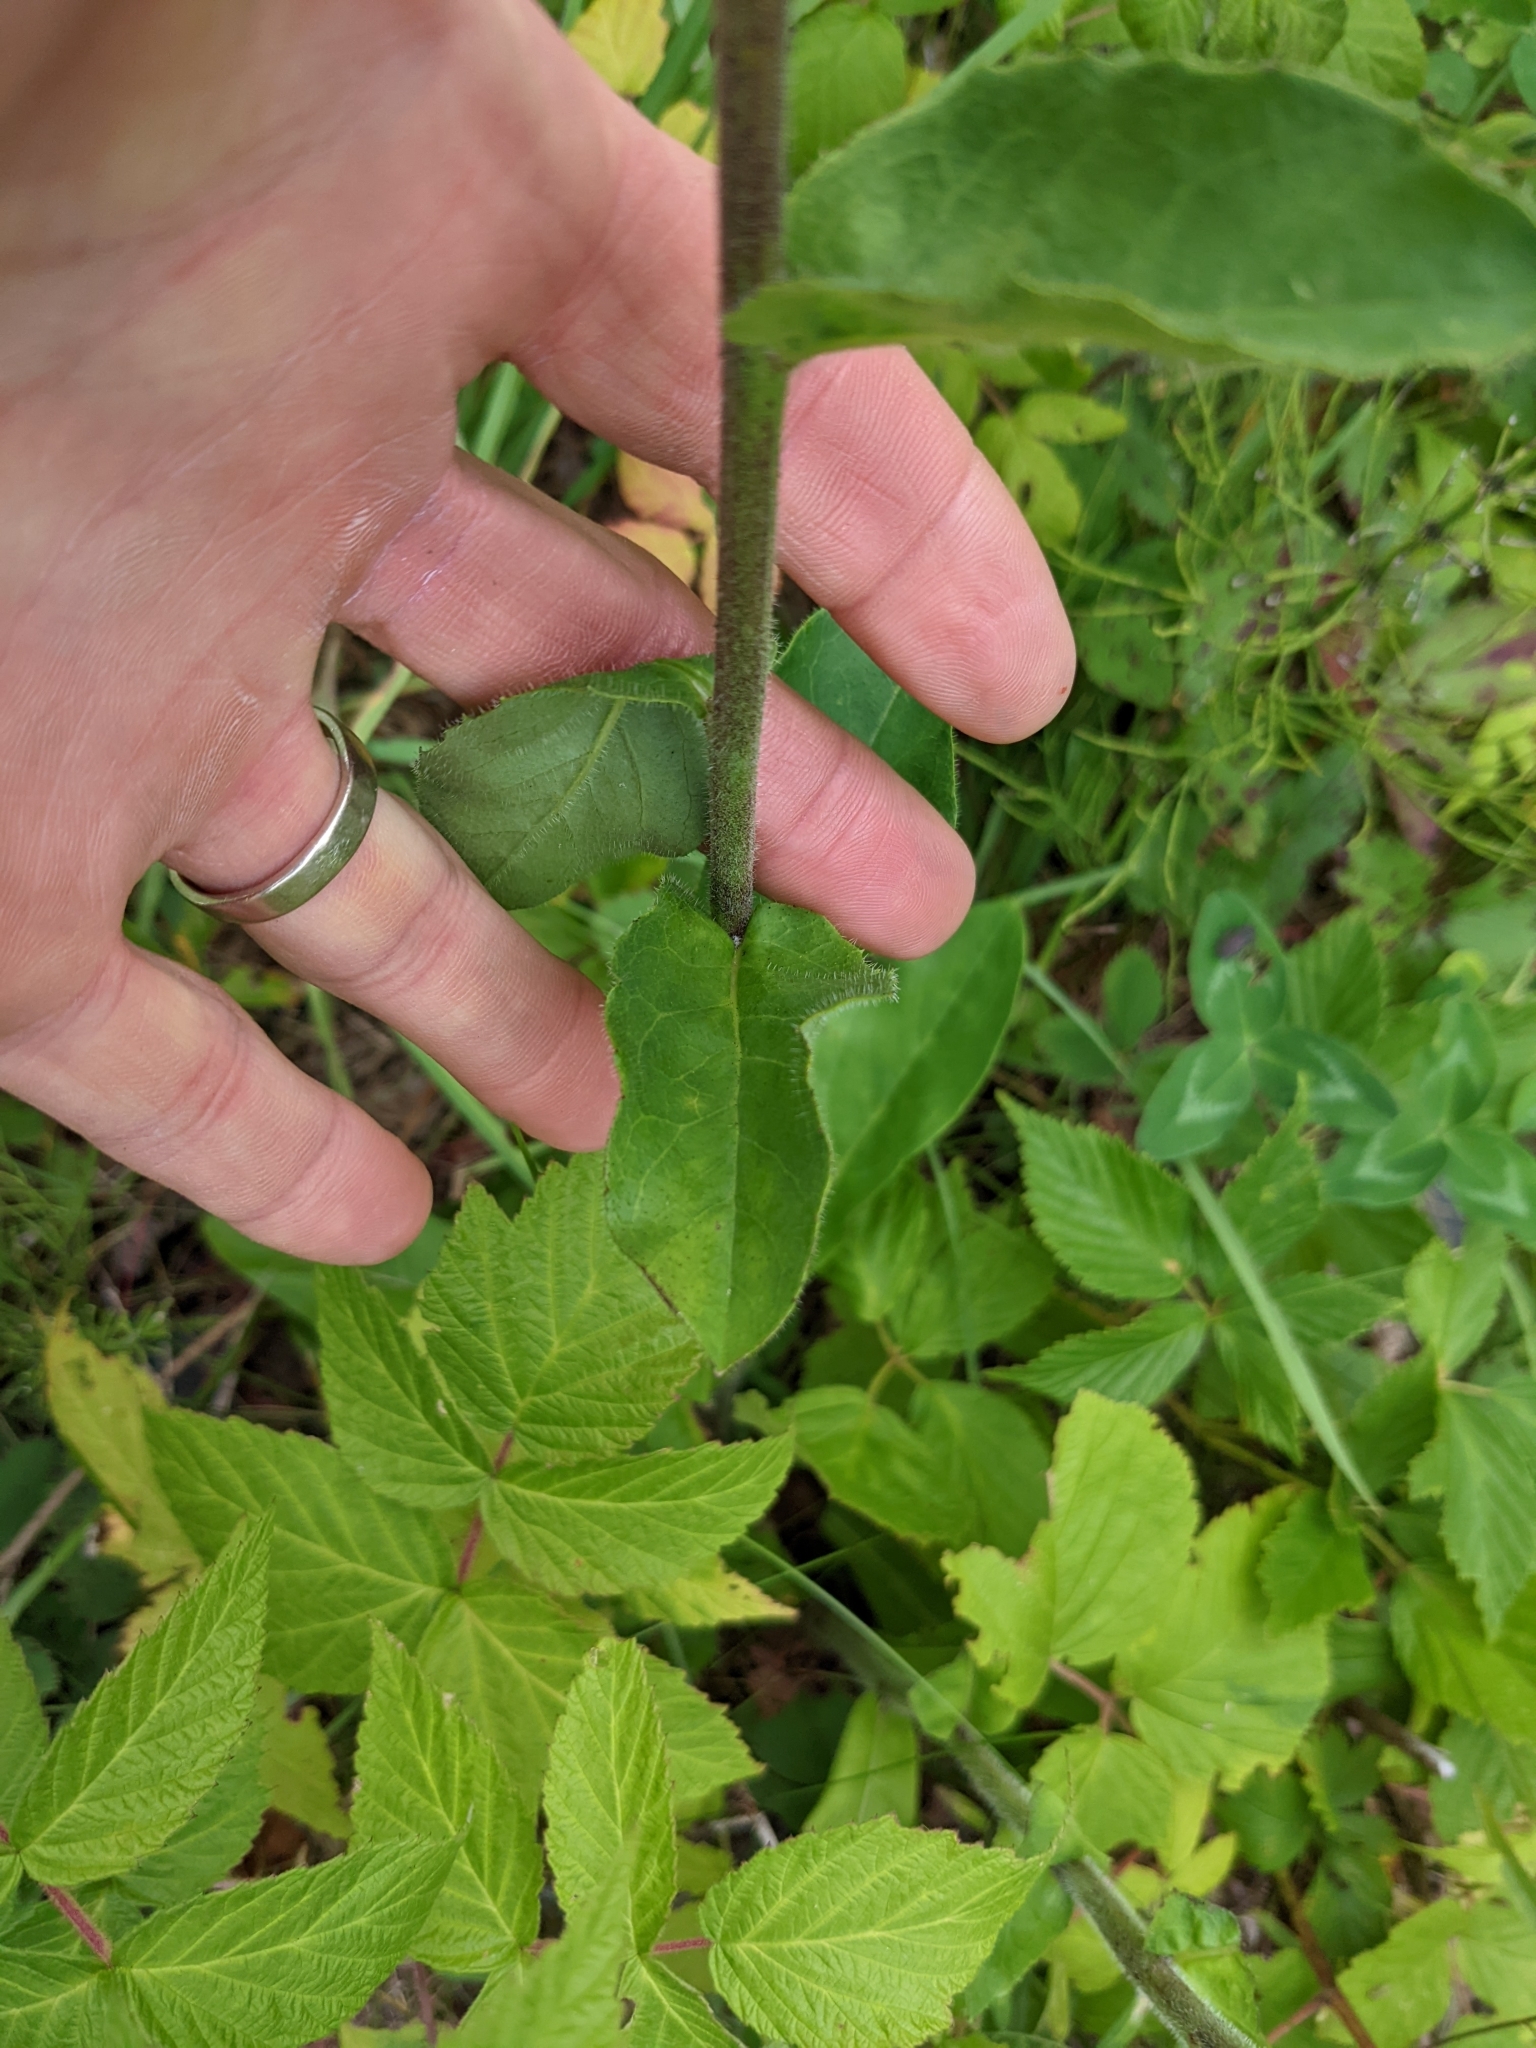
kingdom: Plantae
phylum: Tracheophyta
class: Magnoliopsida
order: Asterales
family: Asteraceae
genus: Hieracium
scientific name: Hieracium scabrum
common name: Rough hawkweed
